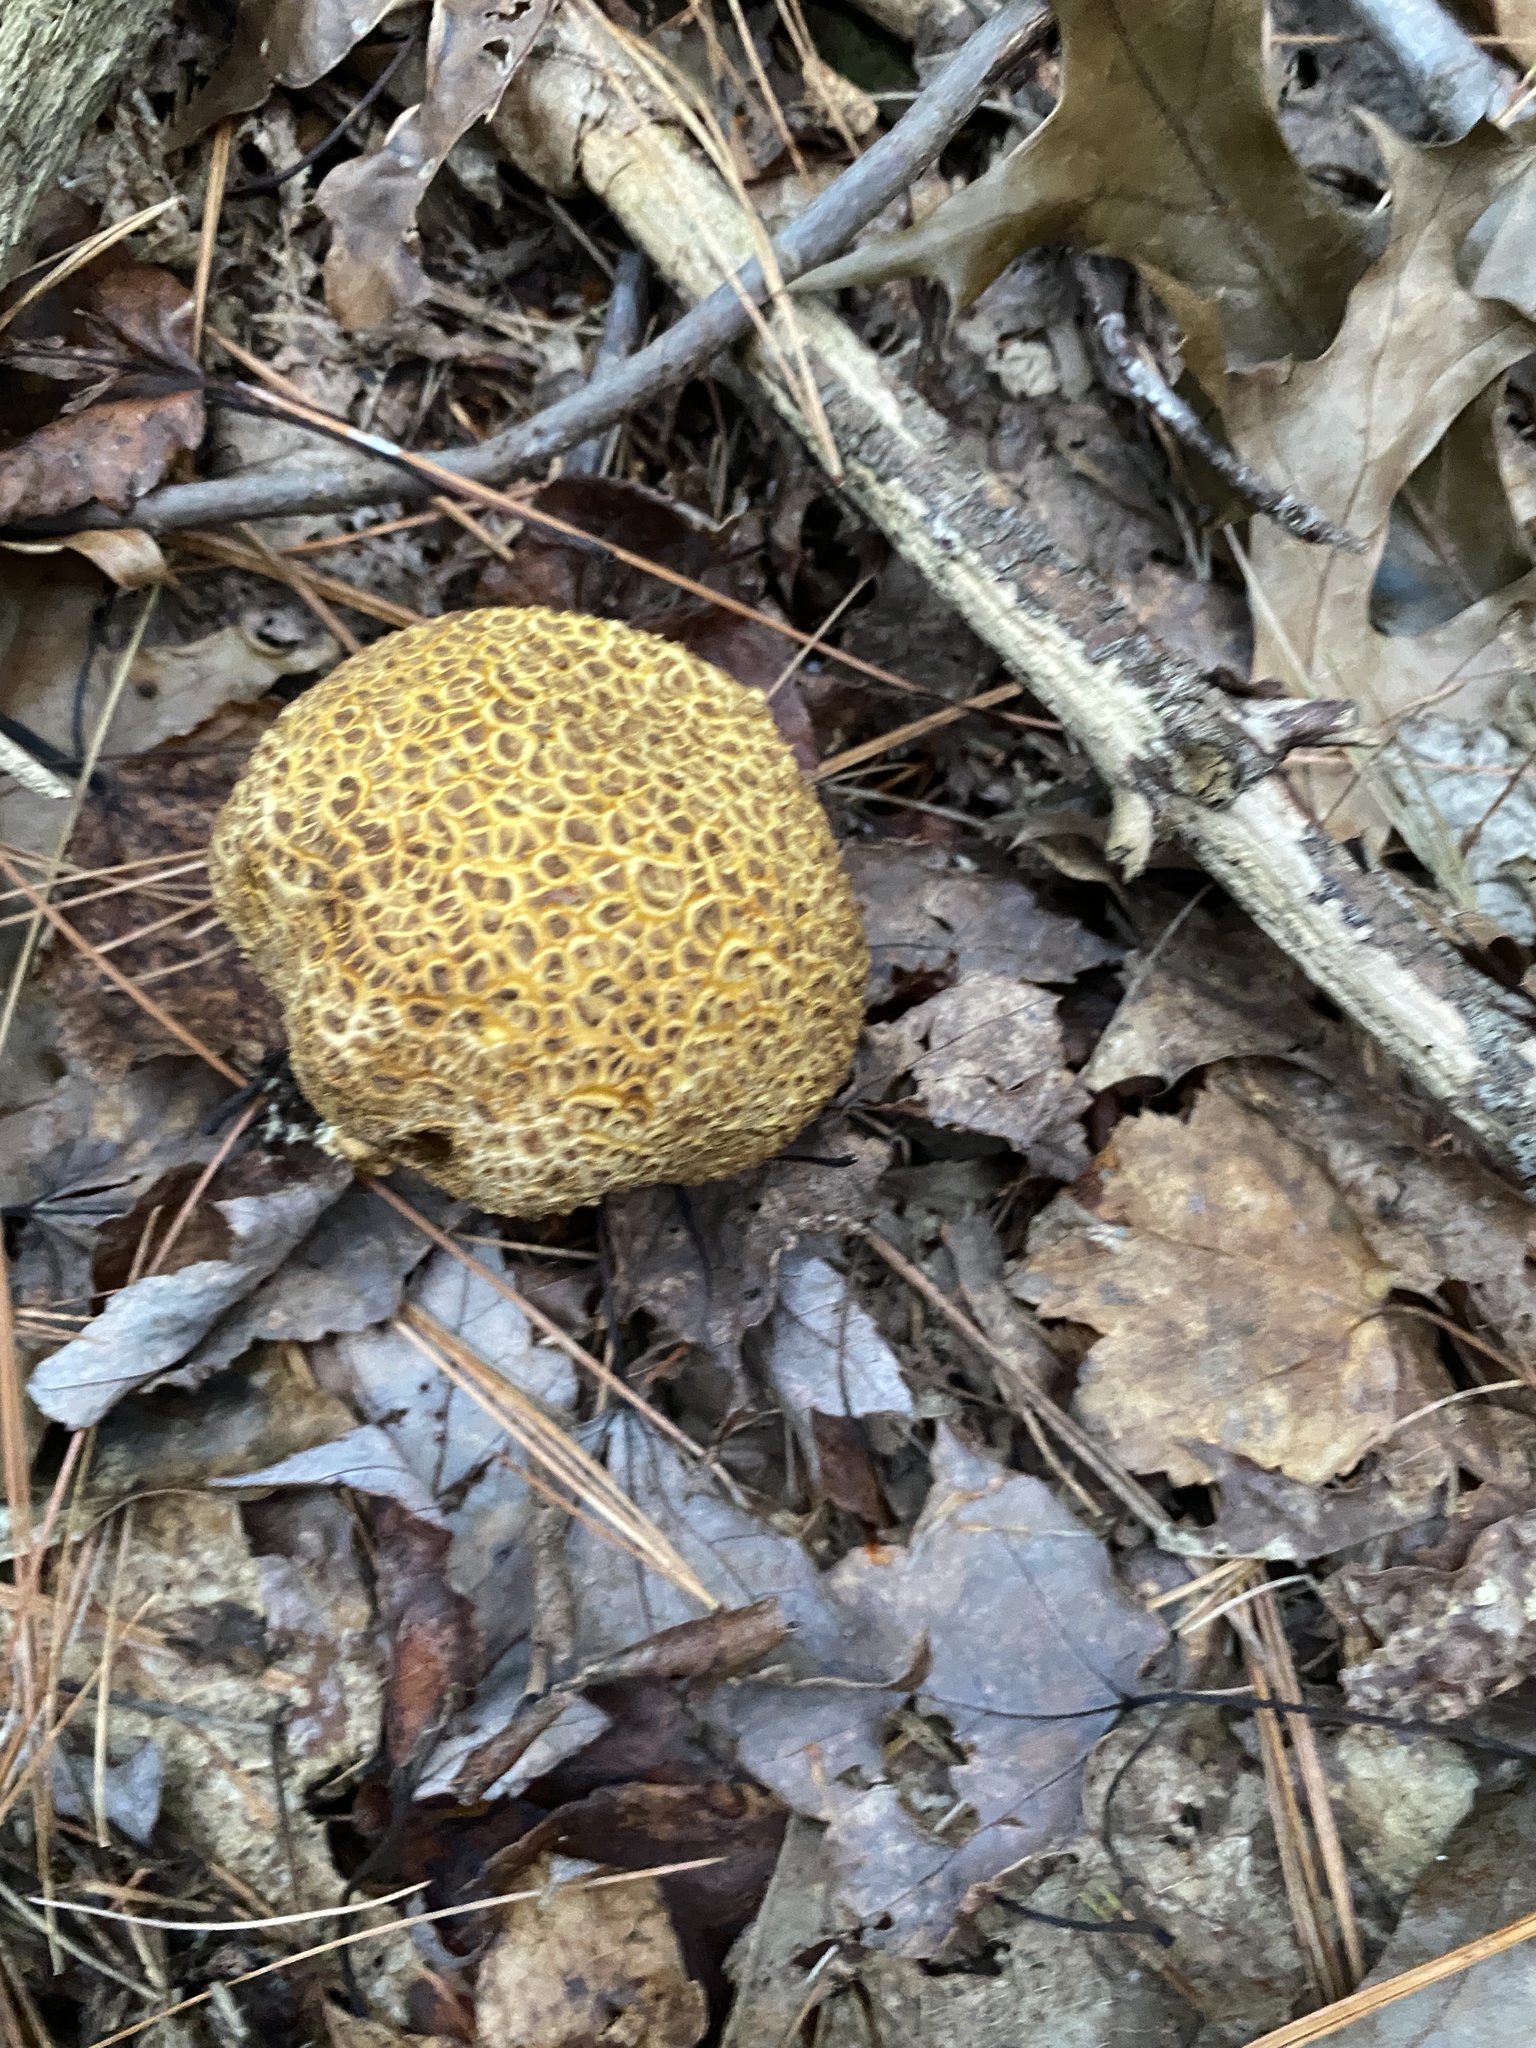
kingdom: Fungi
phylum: Basidiomycota
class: Agaricomycetes
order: Boletales
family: Sclerodermataceae
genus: Scleroderma
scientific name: Scleroderma citrinum
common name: Common earthball
